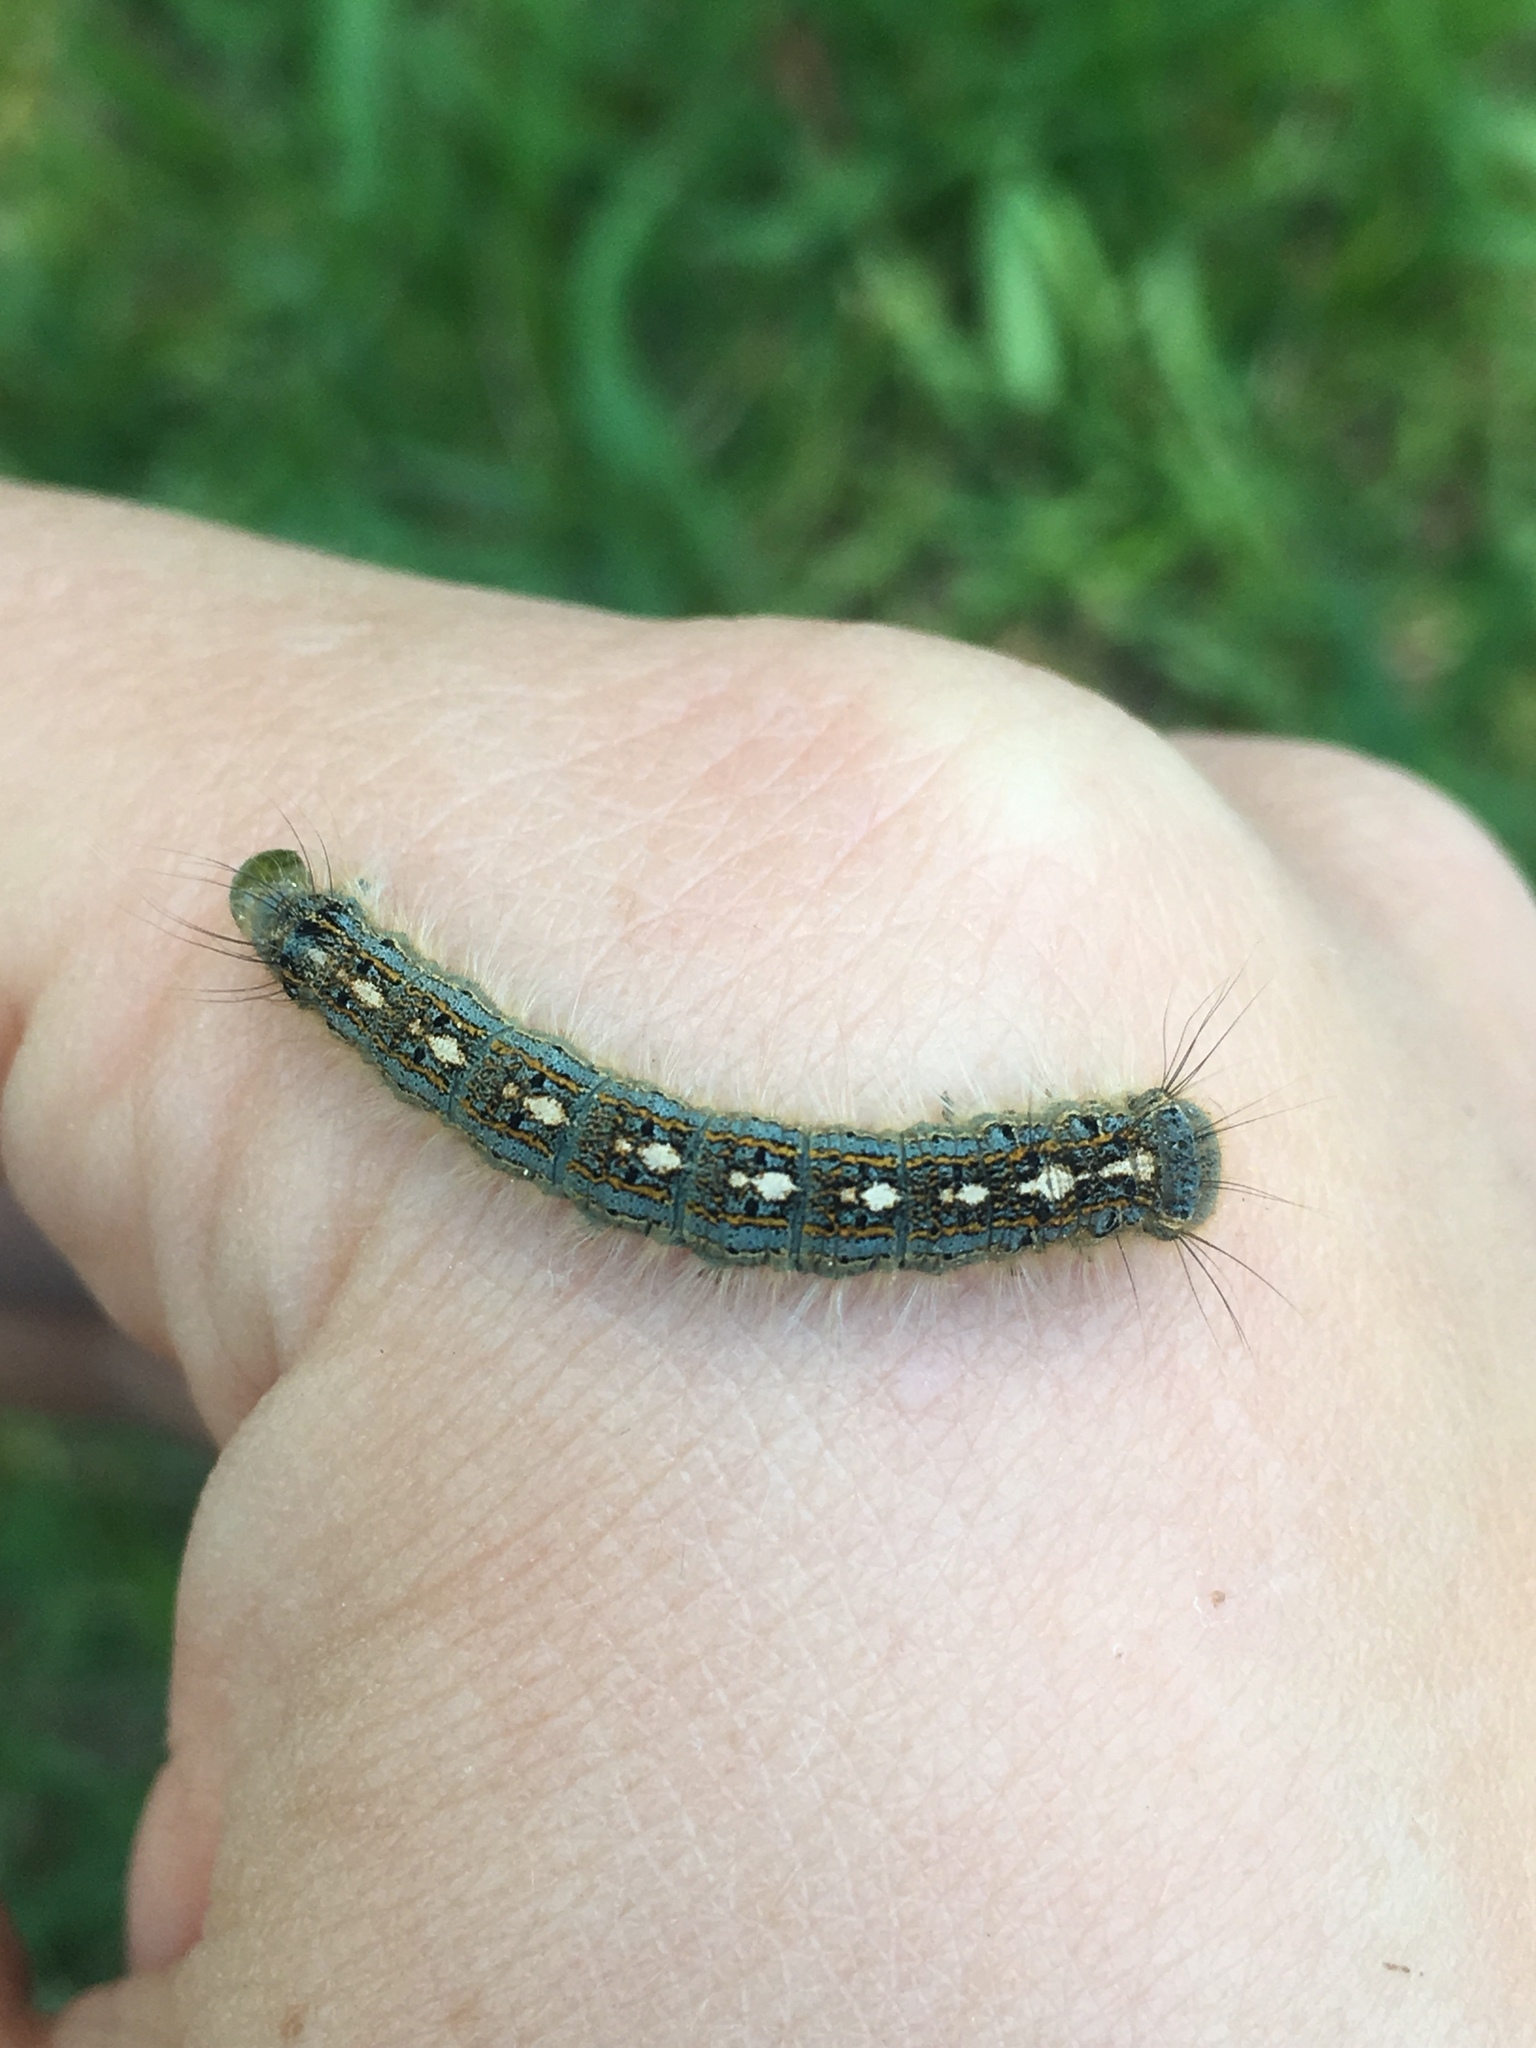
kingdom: Animalia
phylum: Arthropoda
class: Insecta
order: Lepidoptera
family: Lasiocampidae
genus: Malacosoma
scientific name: Malacosoma disstria
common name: Forest tent caterpillar
